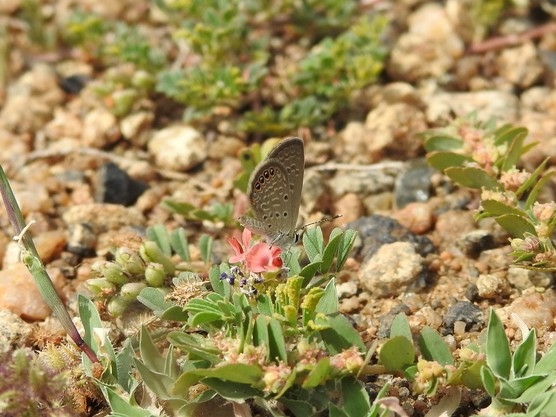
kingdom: Animalia
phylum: Arthropoda
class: Insecta
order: Lepidoptera
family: Lycaenidae
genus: Freyeria
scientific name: Freyeria putli
